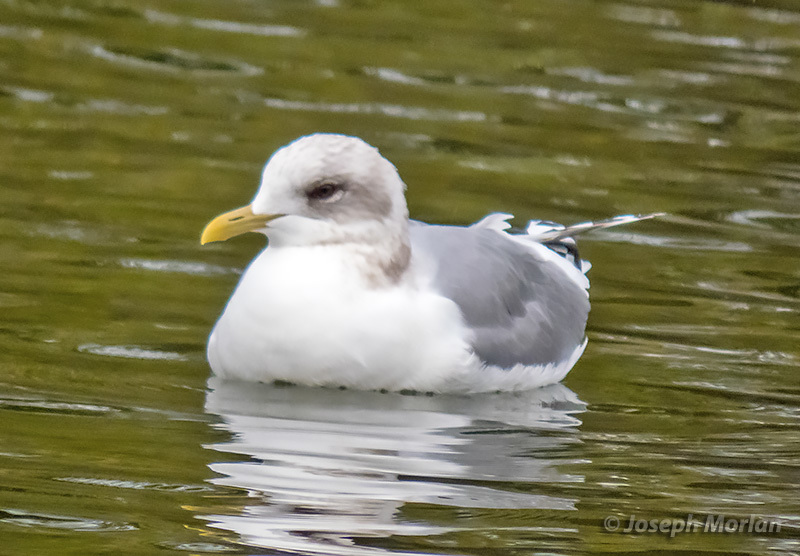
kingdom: Animalia
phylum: Chordata
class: Aves
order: Charadriiformes
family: Laridae
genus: Larus
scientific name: Larus brachyrhynchus
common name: Short-billed gull
